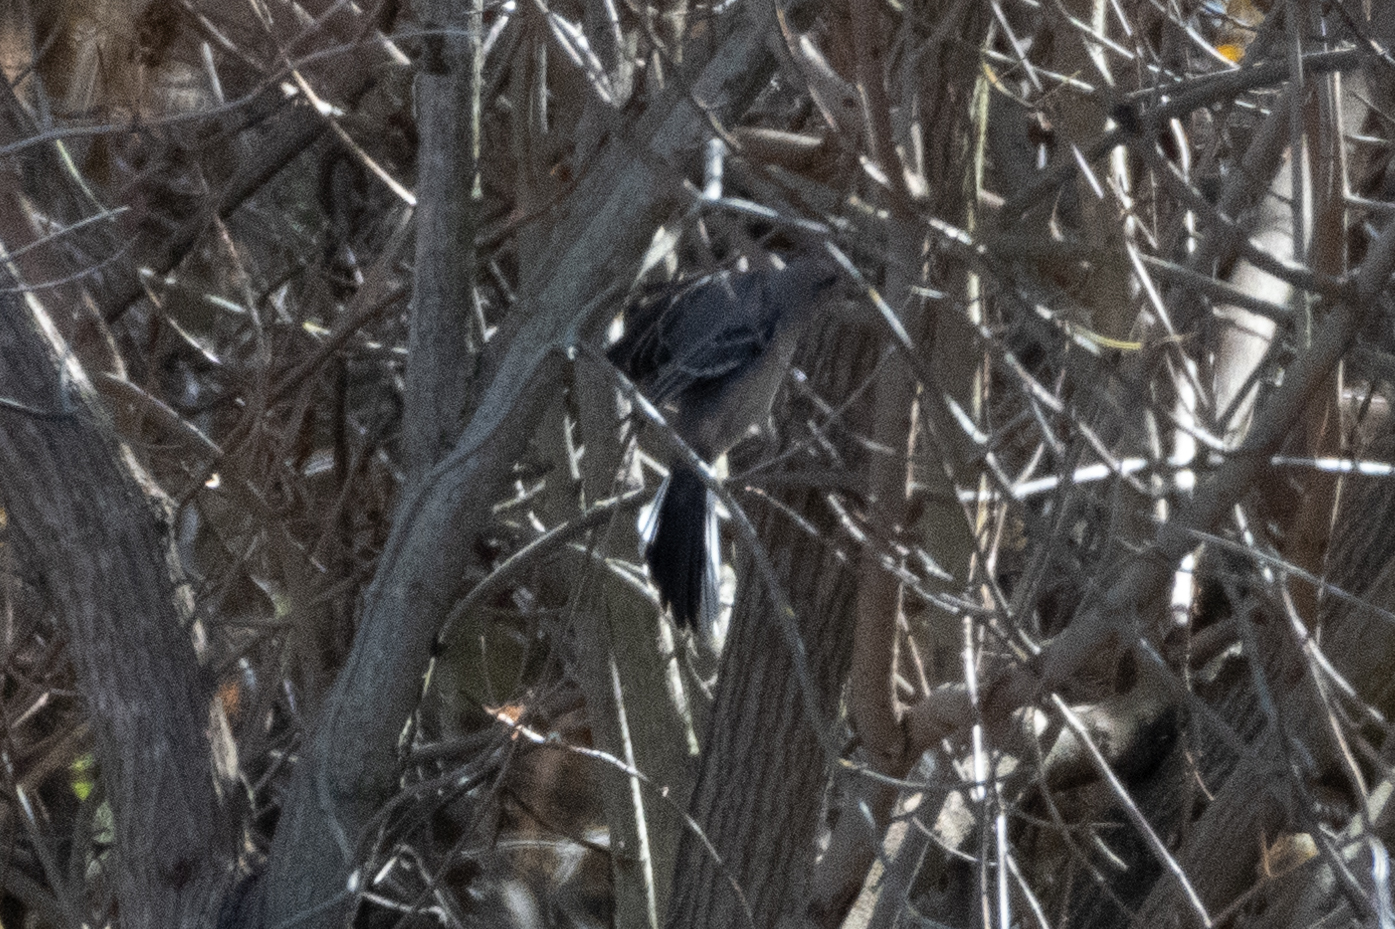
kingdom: Animalia
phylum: Chordata
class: Aves
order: Passeriformes
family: Mimidae
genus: Mimus
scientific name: Mimus polyglottos
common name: Northern mockingbird
